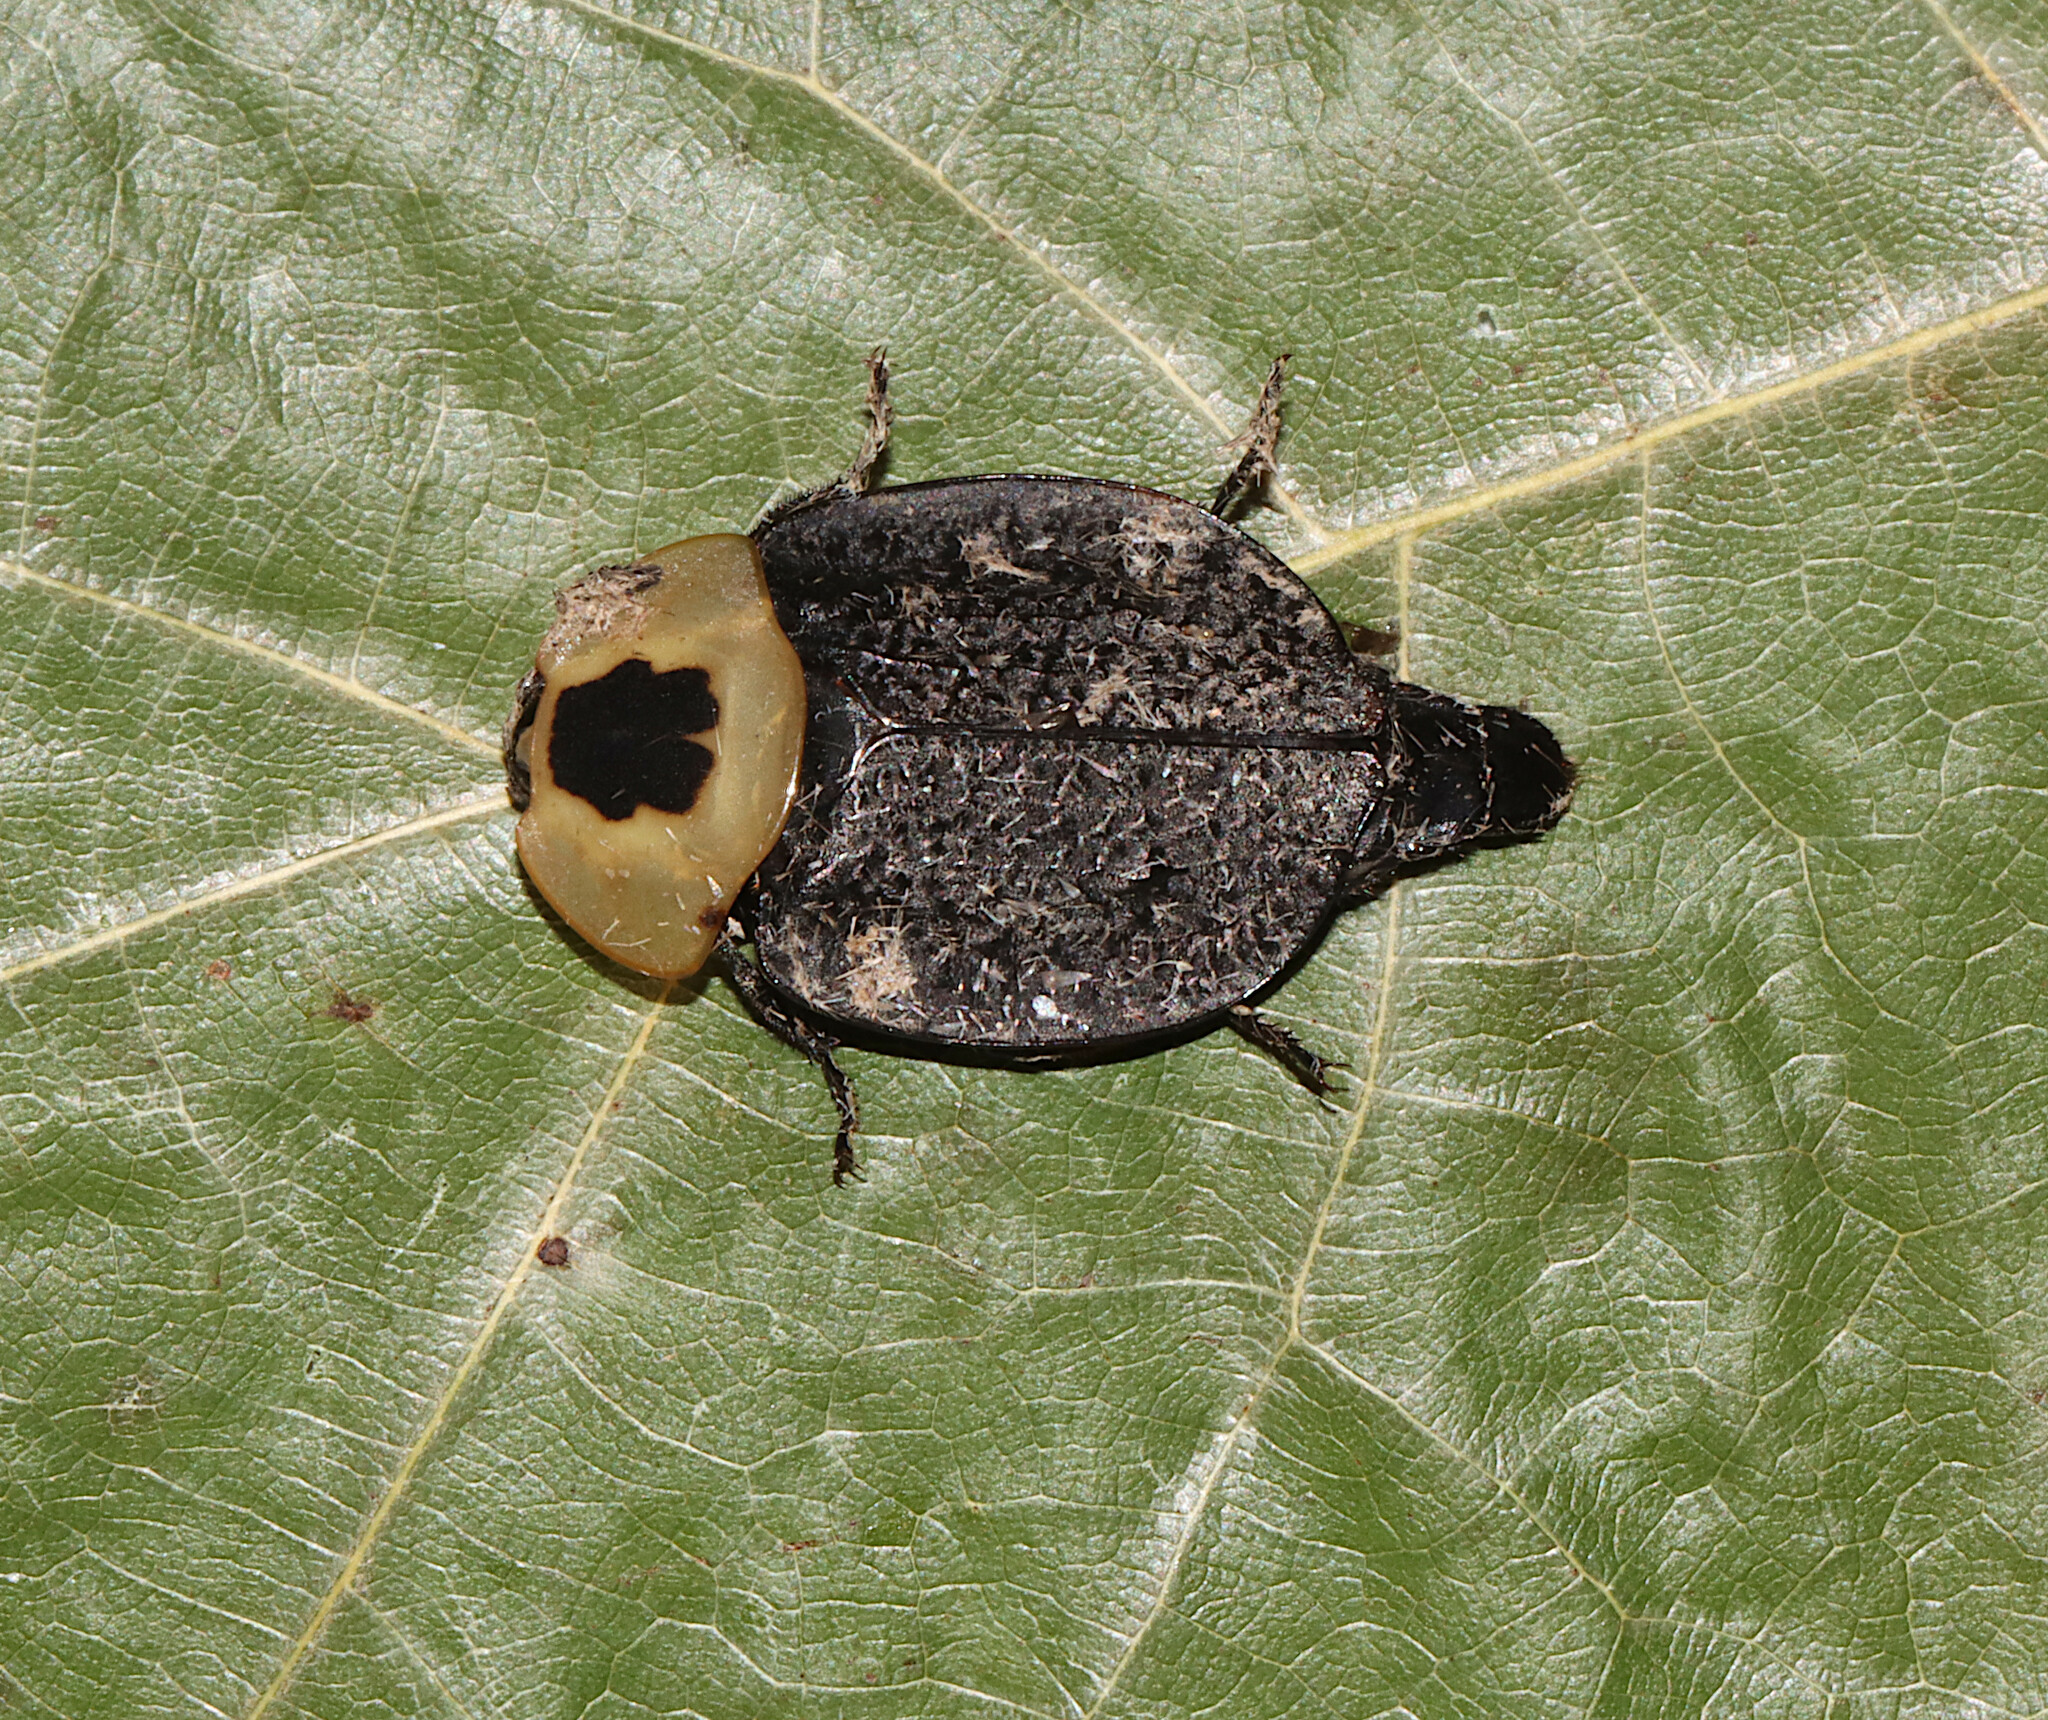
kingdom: Animalia
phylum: Arthropoda
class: Insecta
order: Coleoptera
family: Staphylinidae
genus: Necrophila
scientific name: Necrophila americana
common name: American carrion beetle
